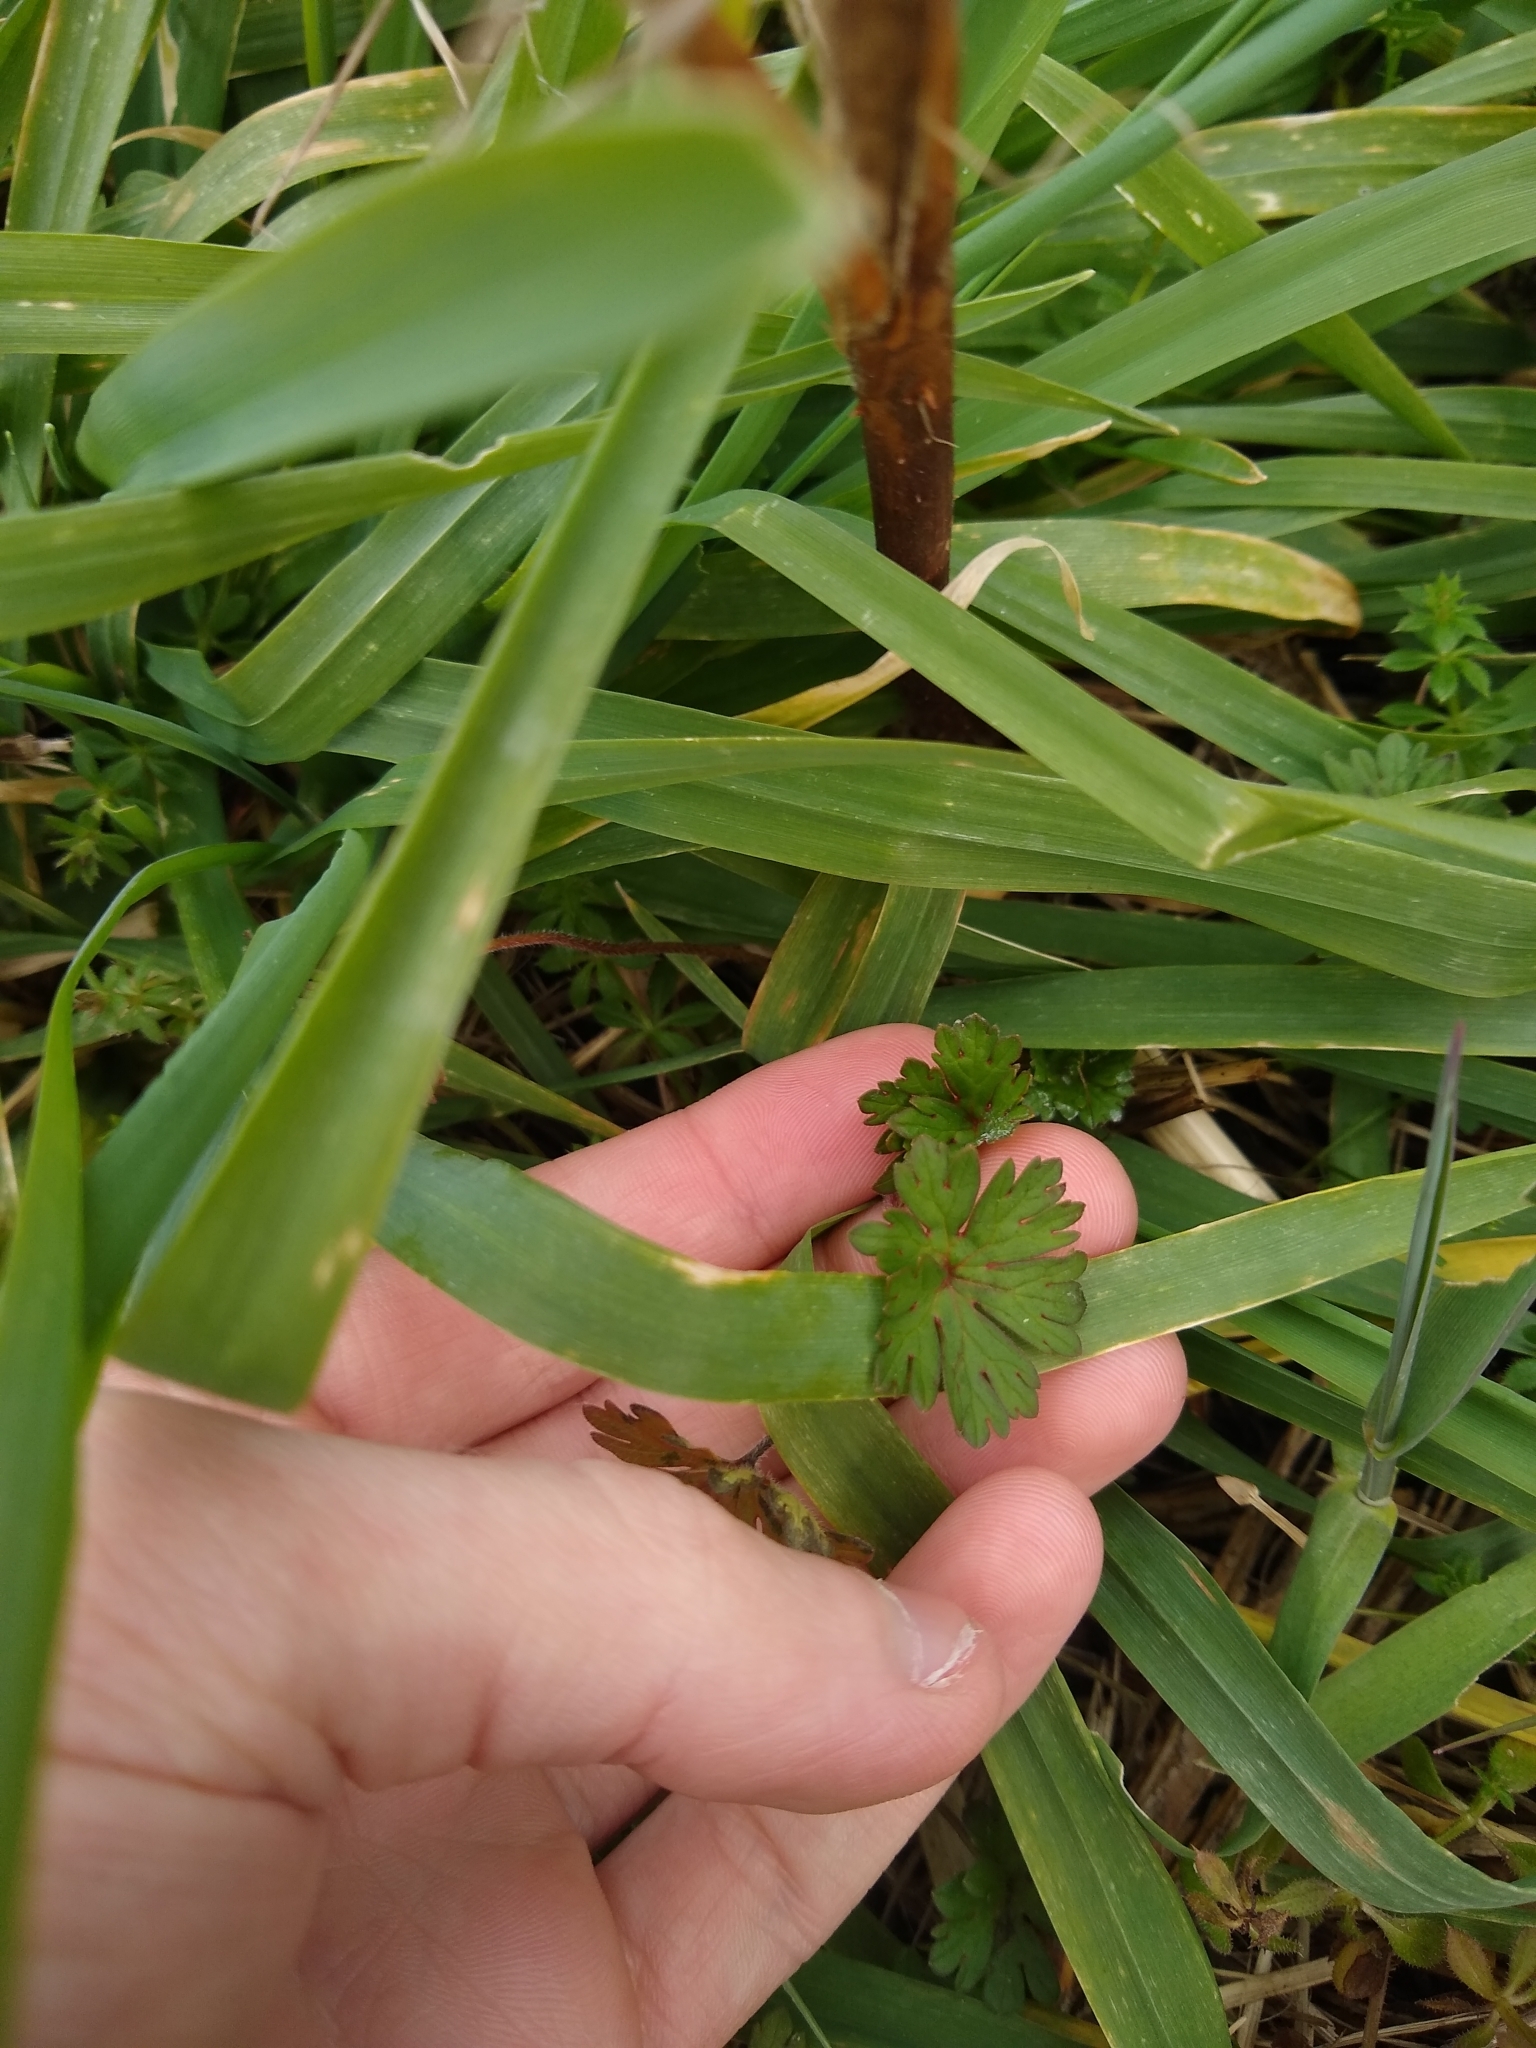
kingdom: Plantae
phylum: Tracheophyta
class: Magnoliopsida
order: Geraniales
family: Geraniaceae
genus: Geranium
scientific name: Geranium molle
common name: Dove's-foot crane's-bill
